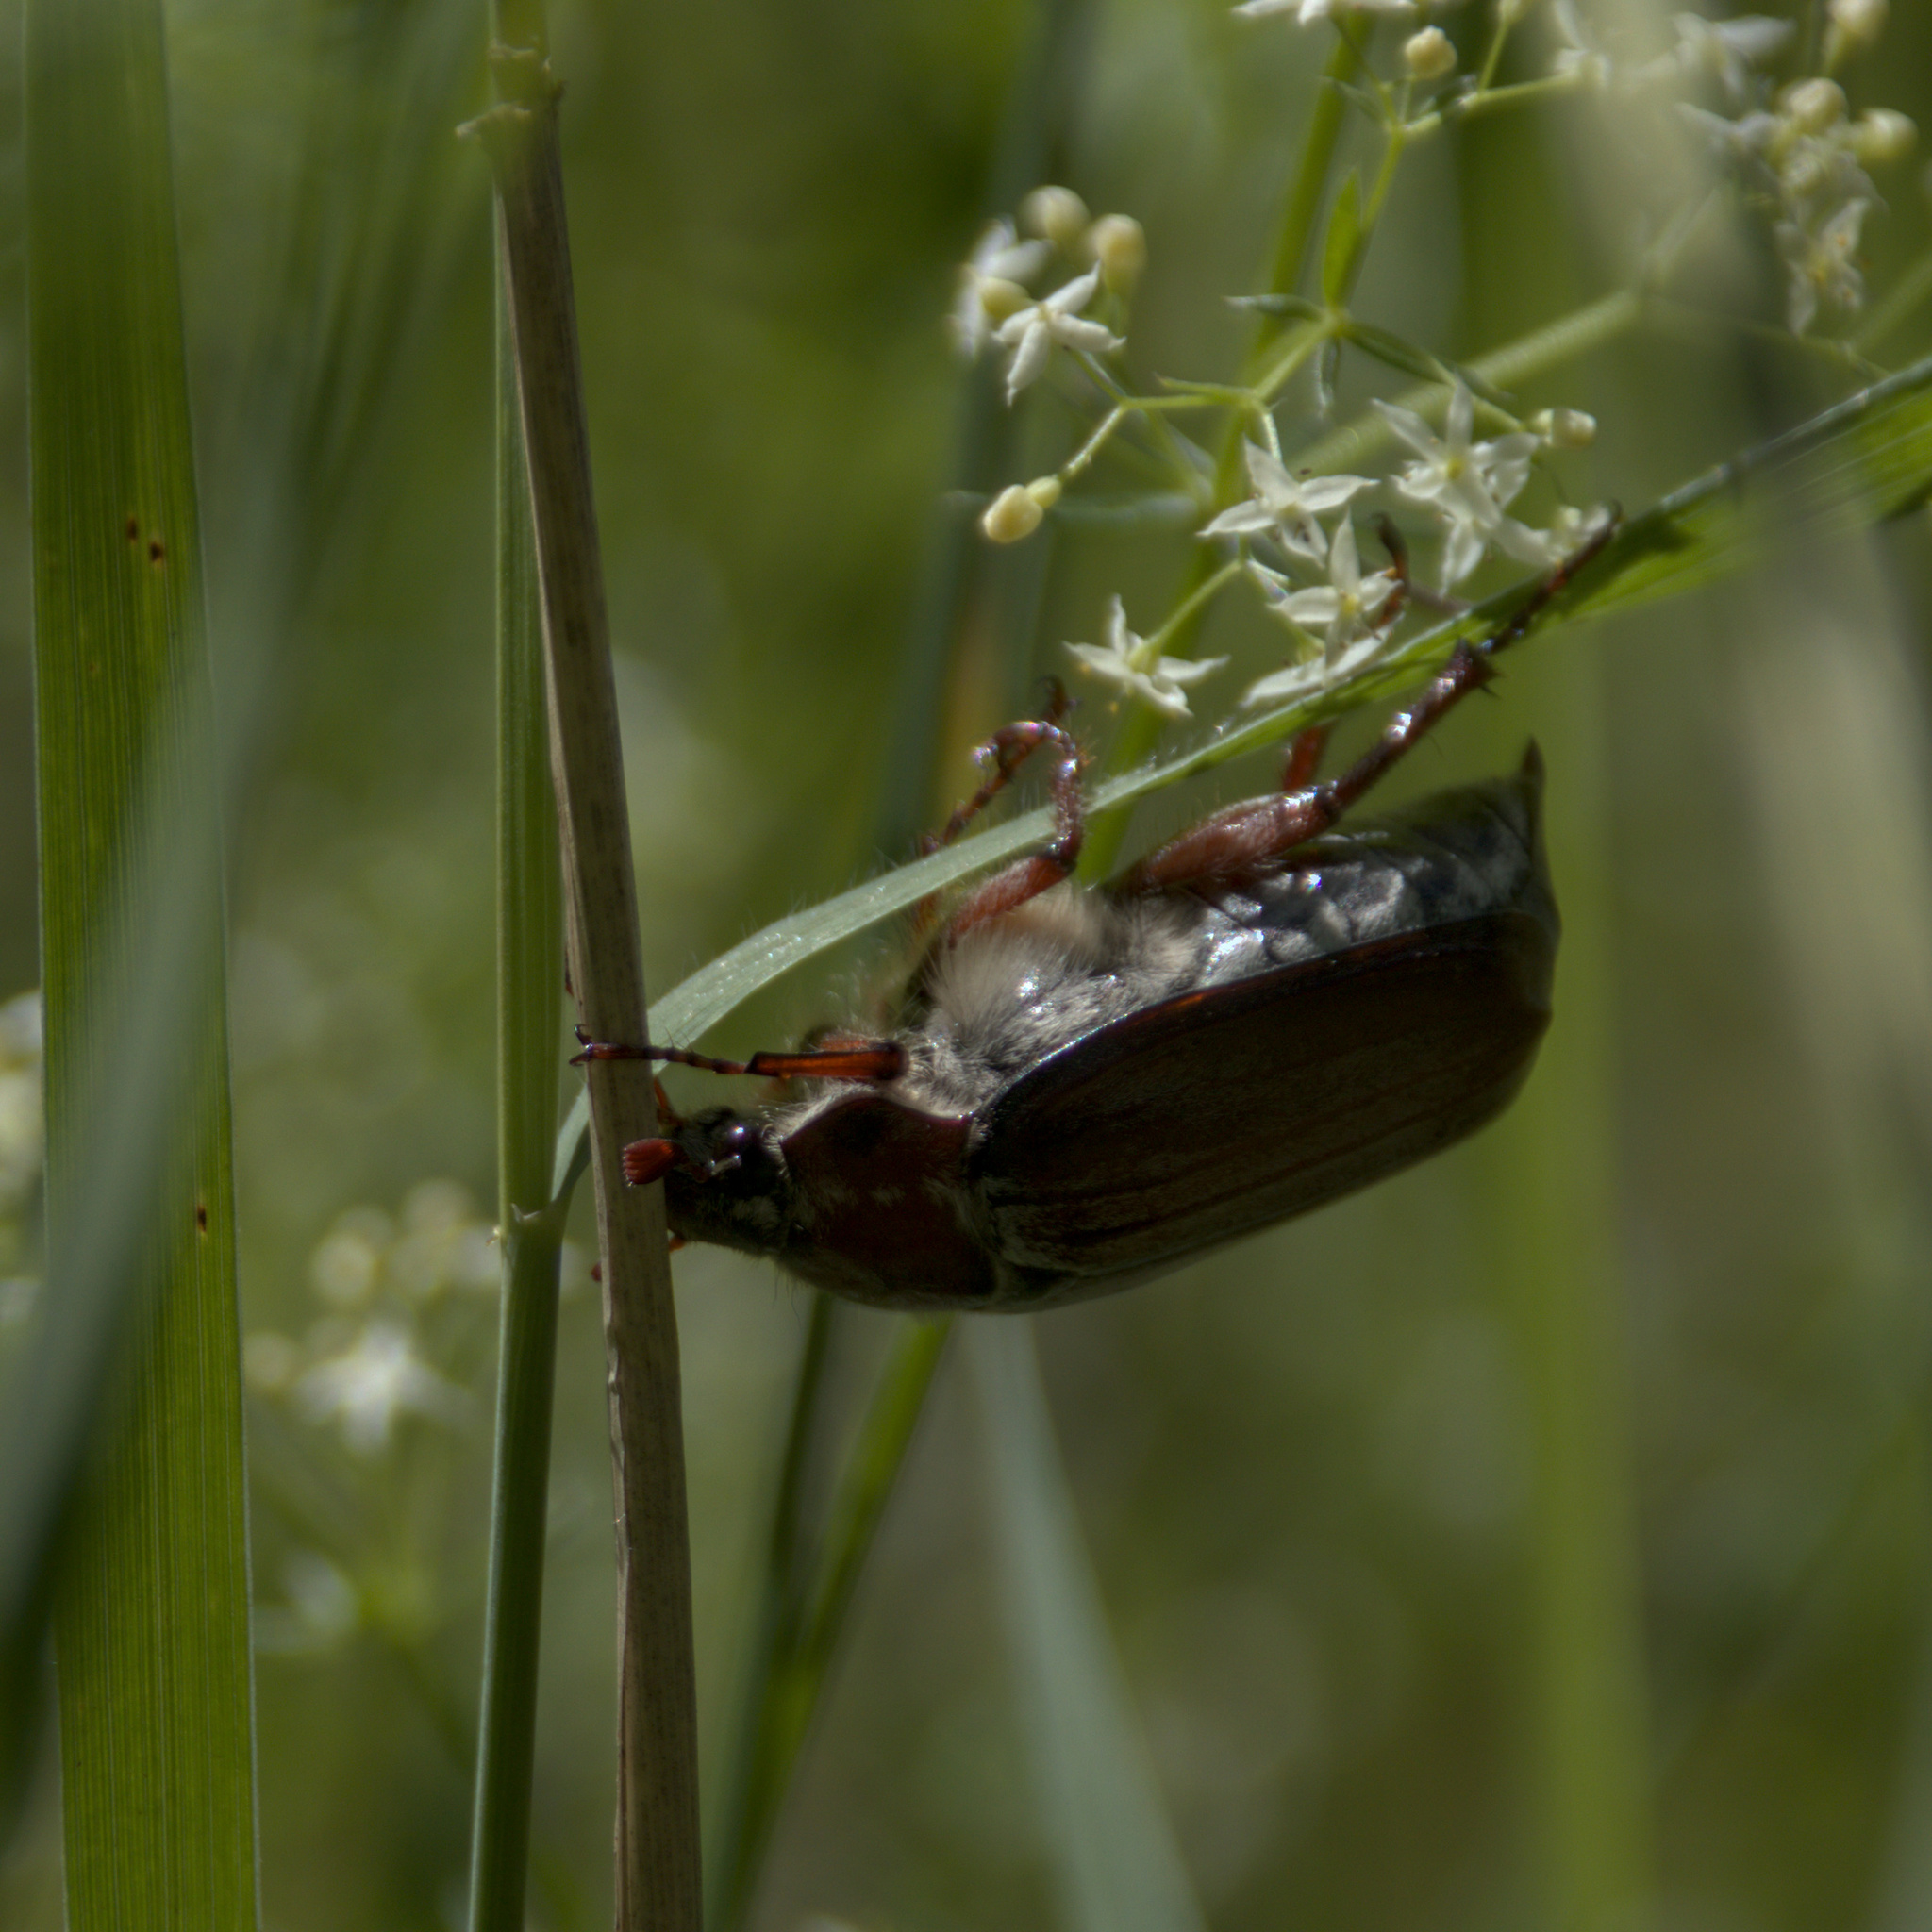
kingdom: Animalia
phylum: Arthropoda
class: Insecta
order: Coleoptera
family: Scarabaeidae
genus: Melolontha
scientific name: Melolontha hippocastani
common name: Chestnut cockchafer
